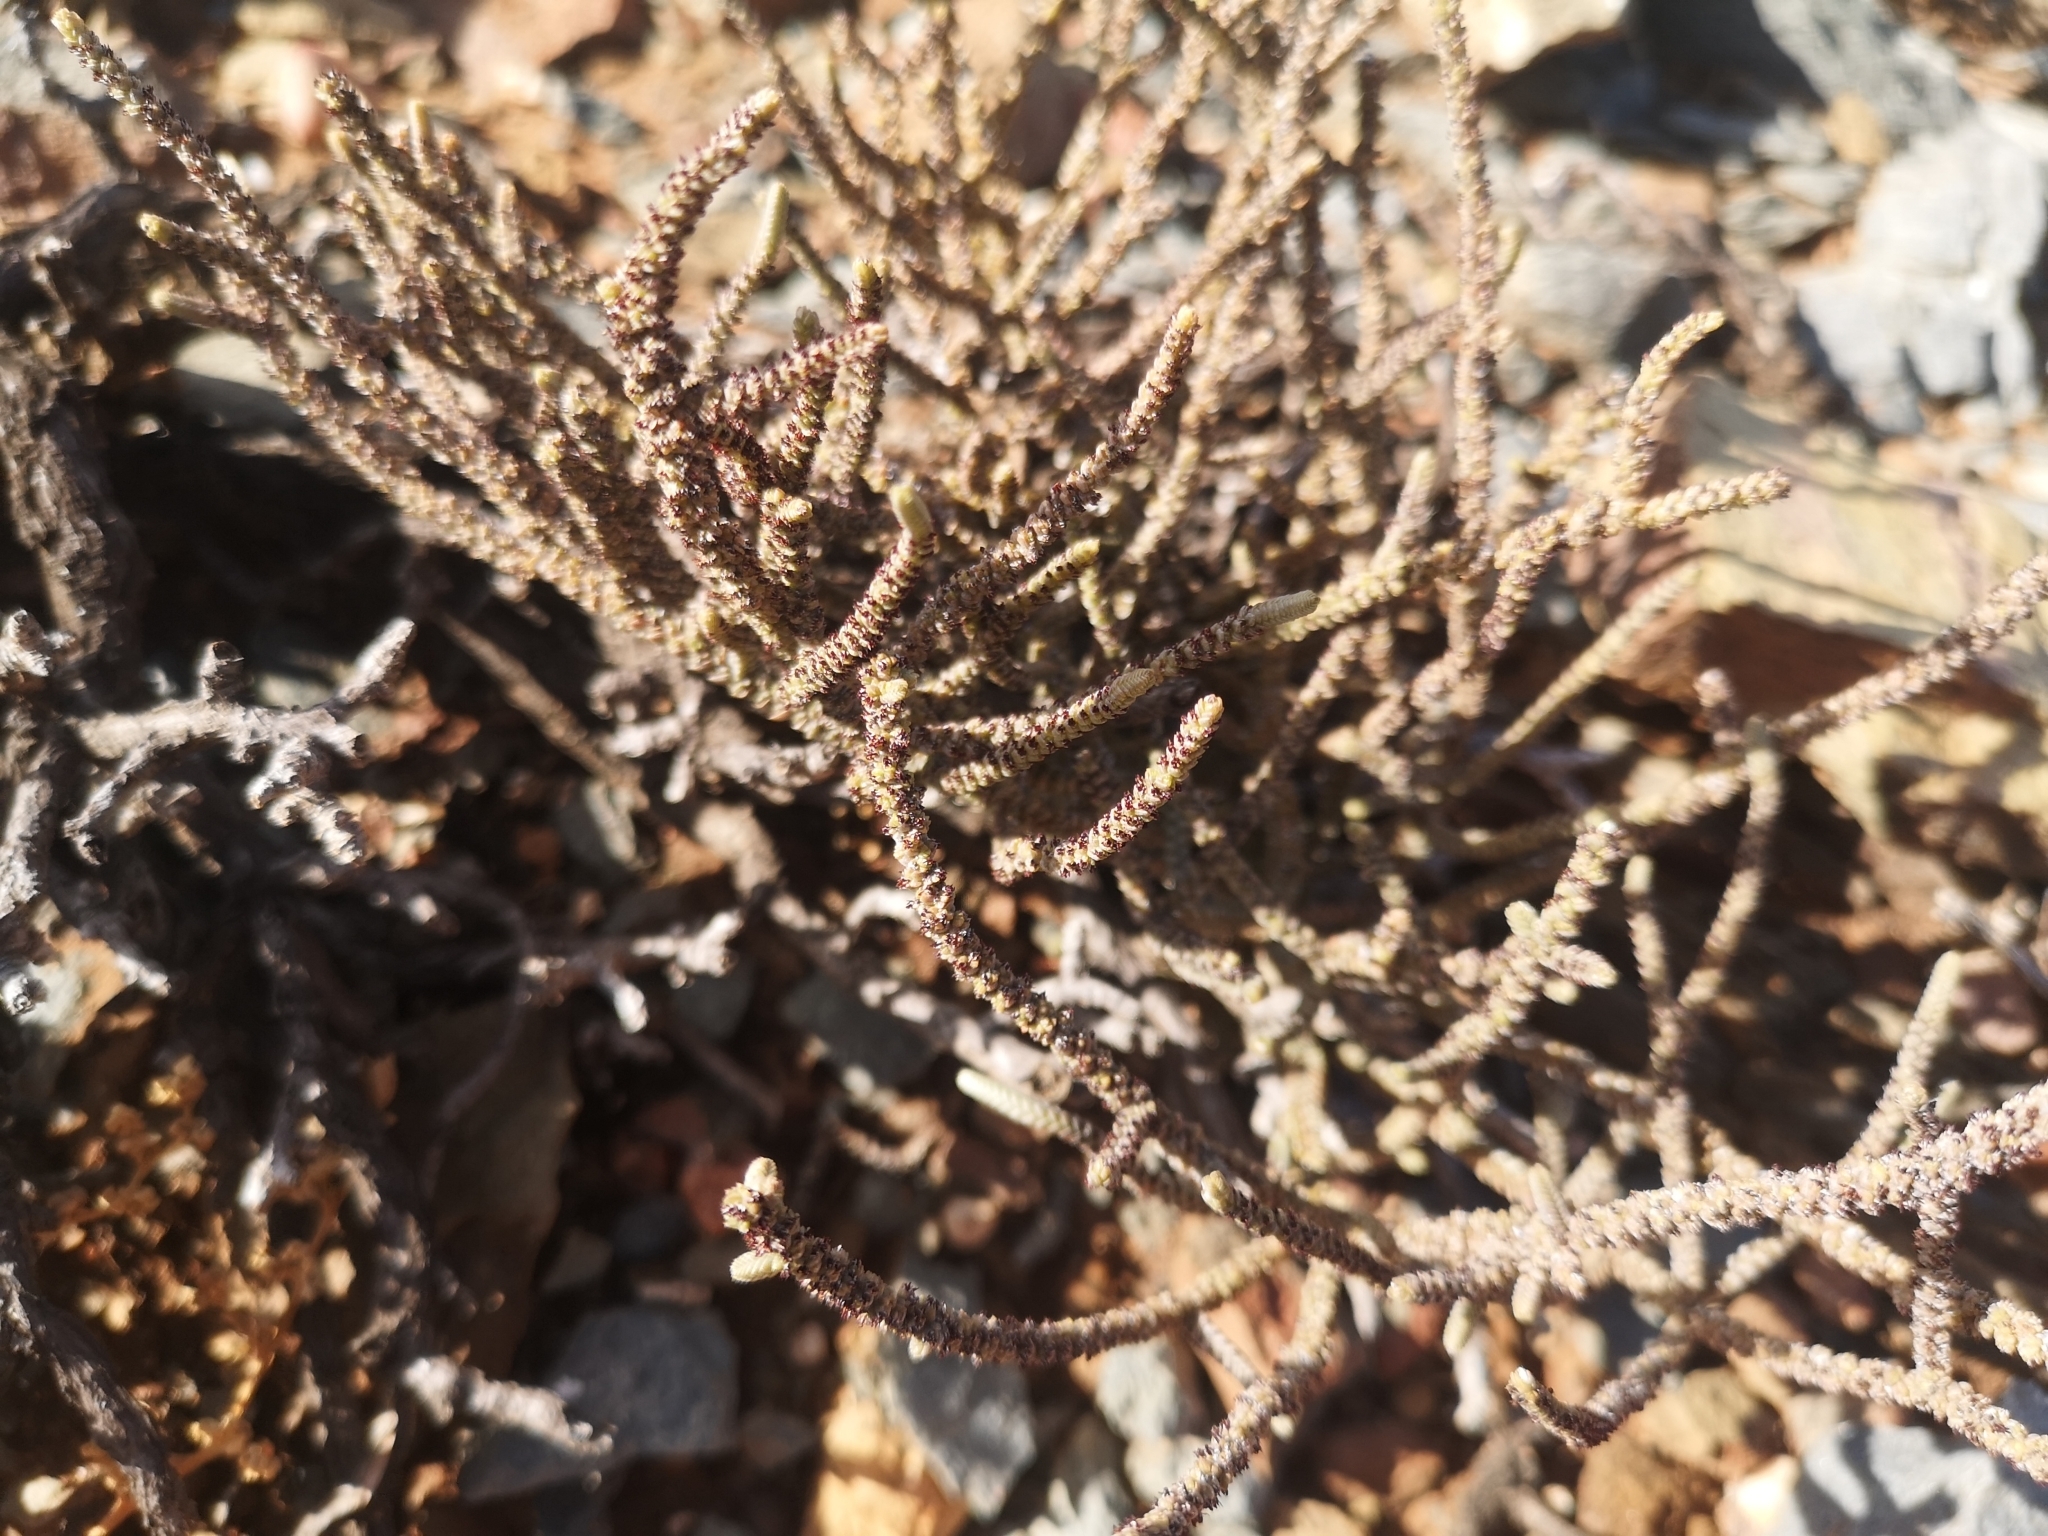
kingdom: Plantae
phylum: Tracheophyta
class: Magnoliopsida
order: Saxifragales
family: Crassulaceae
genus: Crassula
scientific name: Crassula muscosa
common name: Toy-cypress
